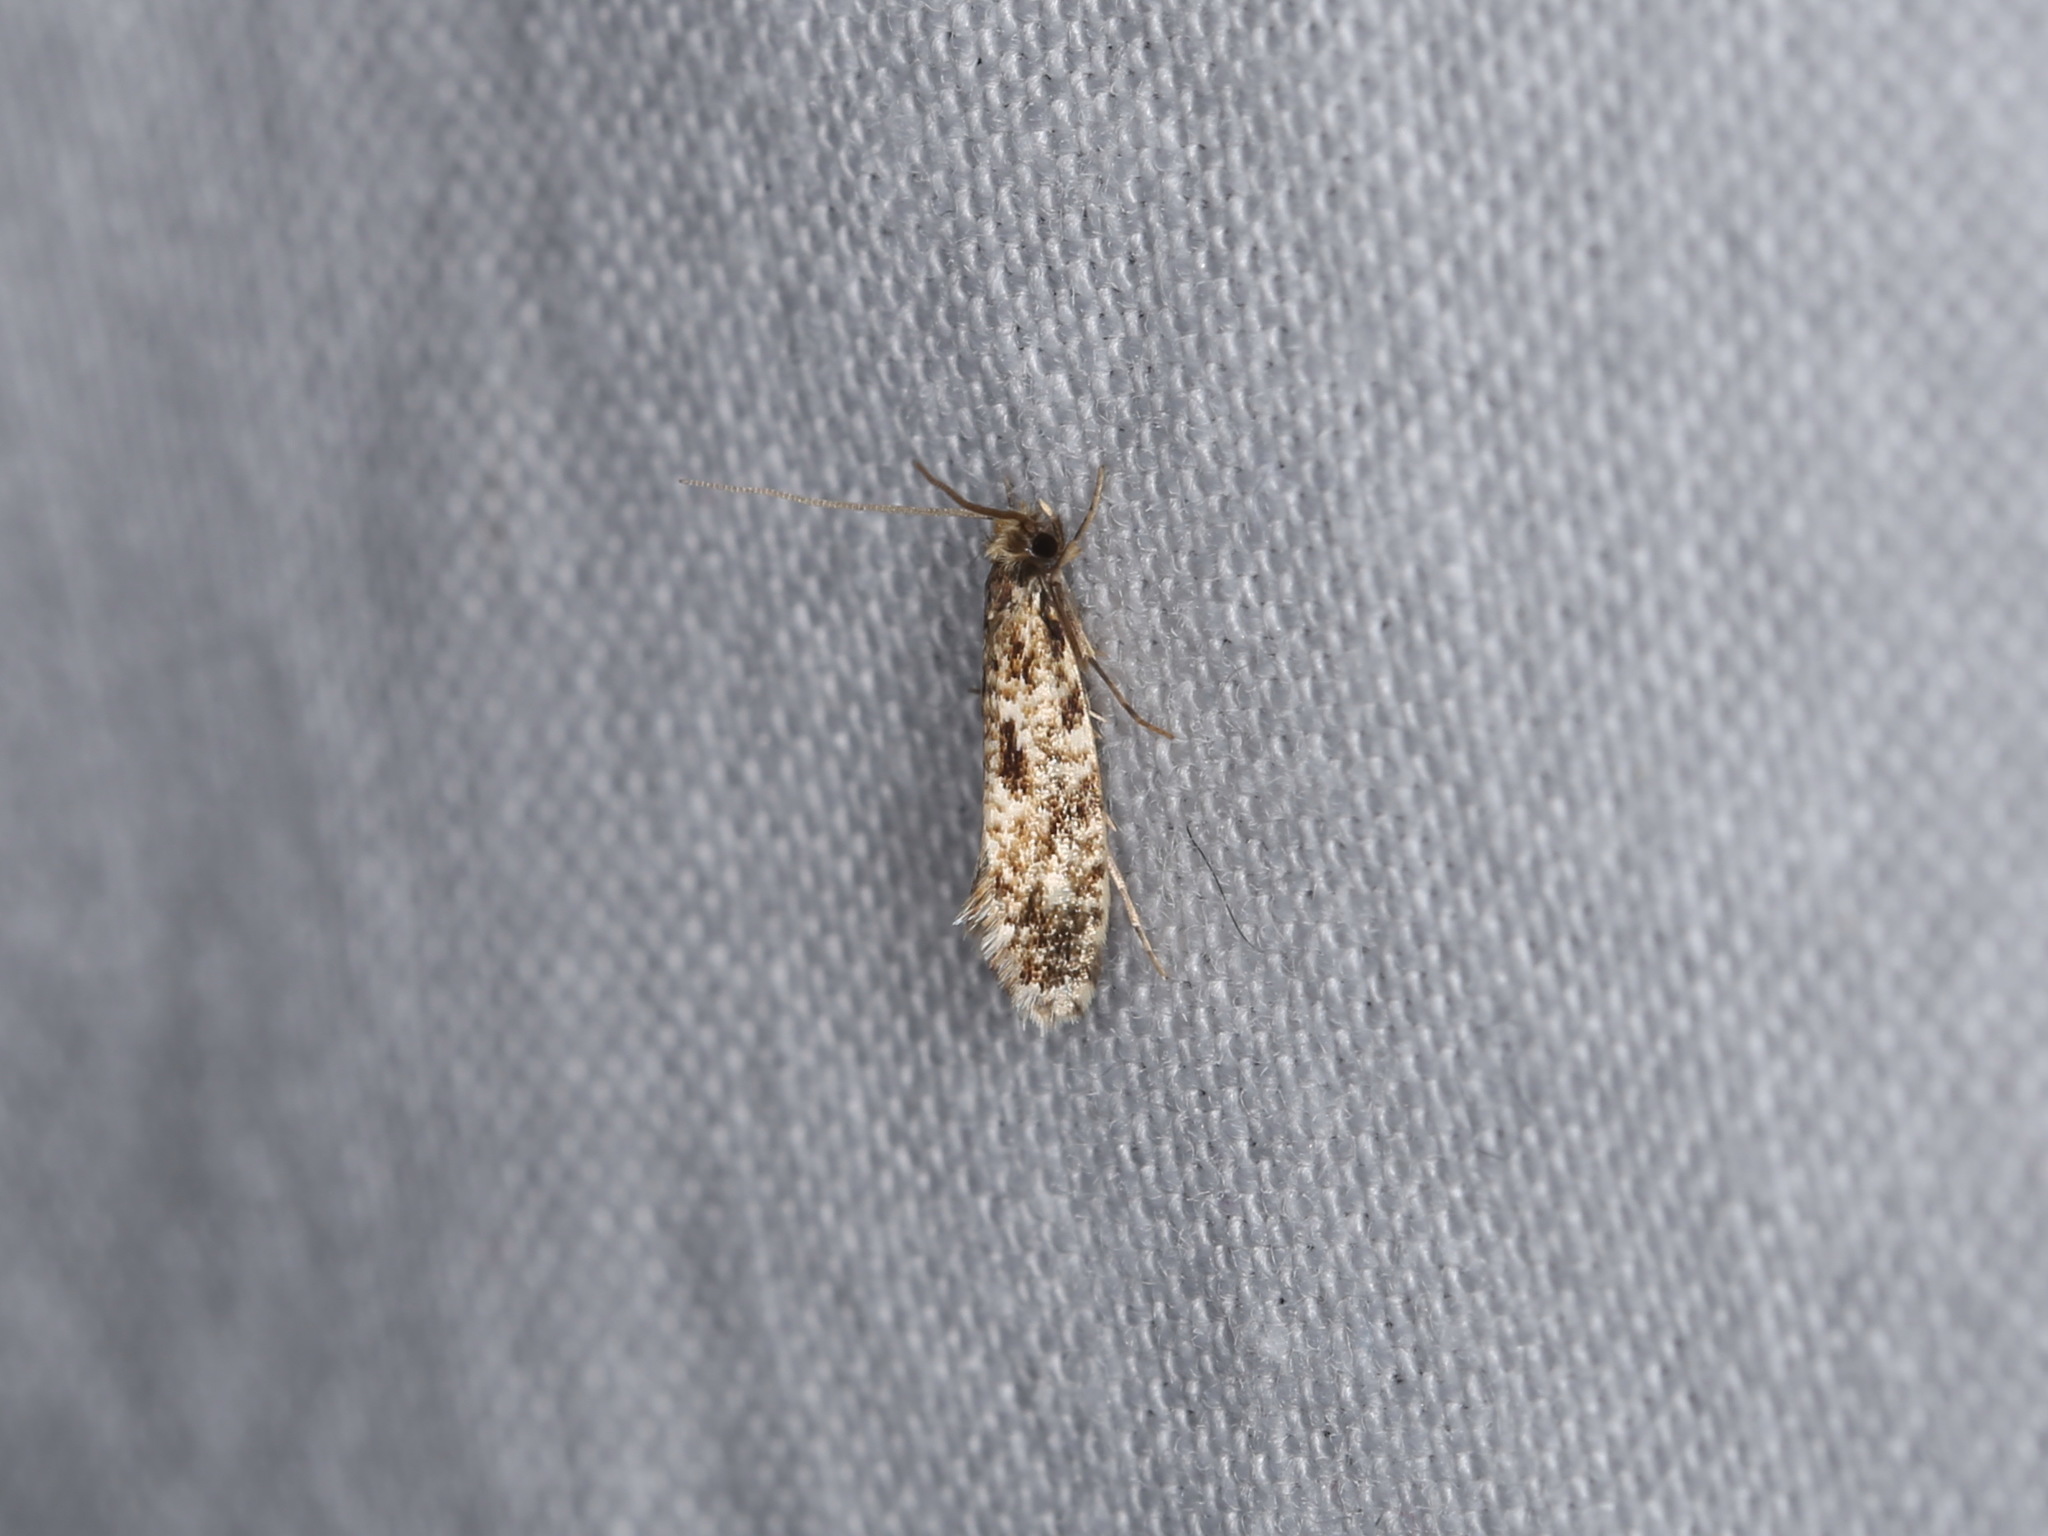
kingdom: Animalia
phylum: Arthropoda
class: Insecta
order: Lepidoptera
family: Tineidae
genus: Nemapogon
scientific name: Nemapogon variatella
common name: Pale corn clothes
